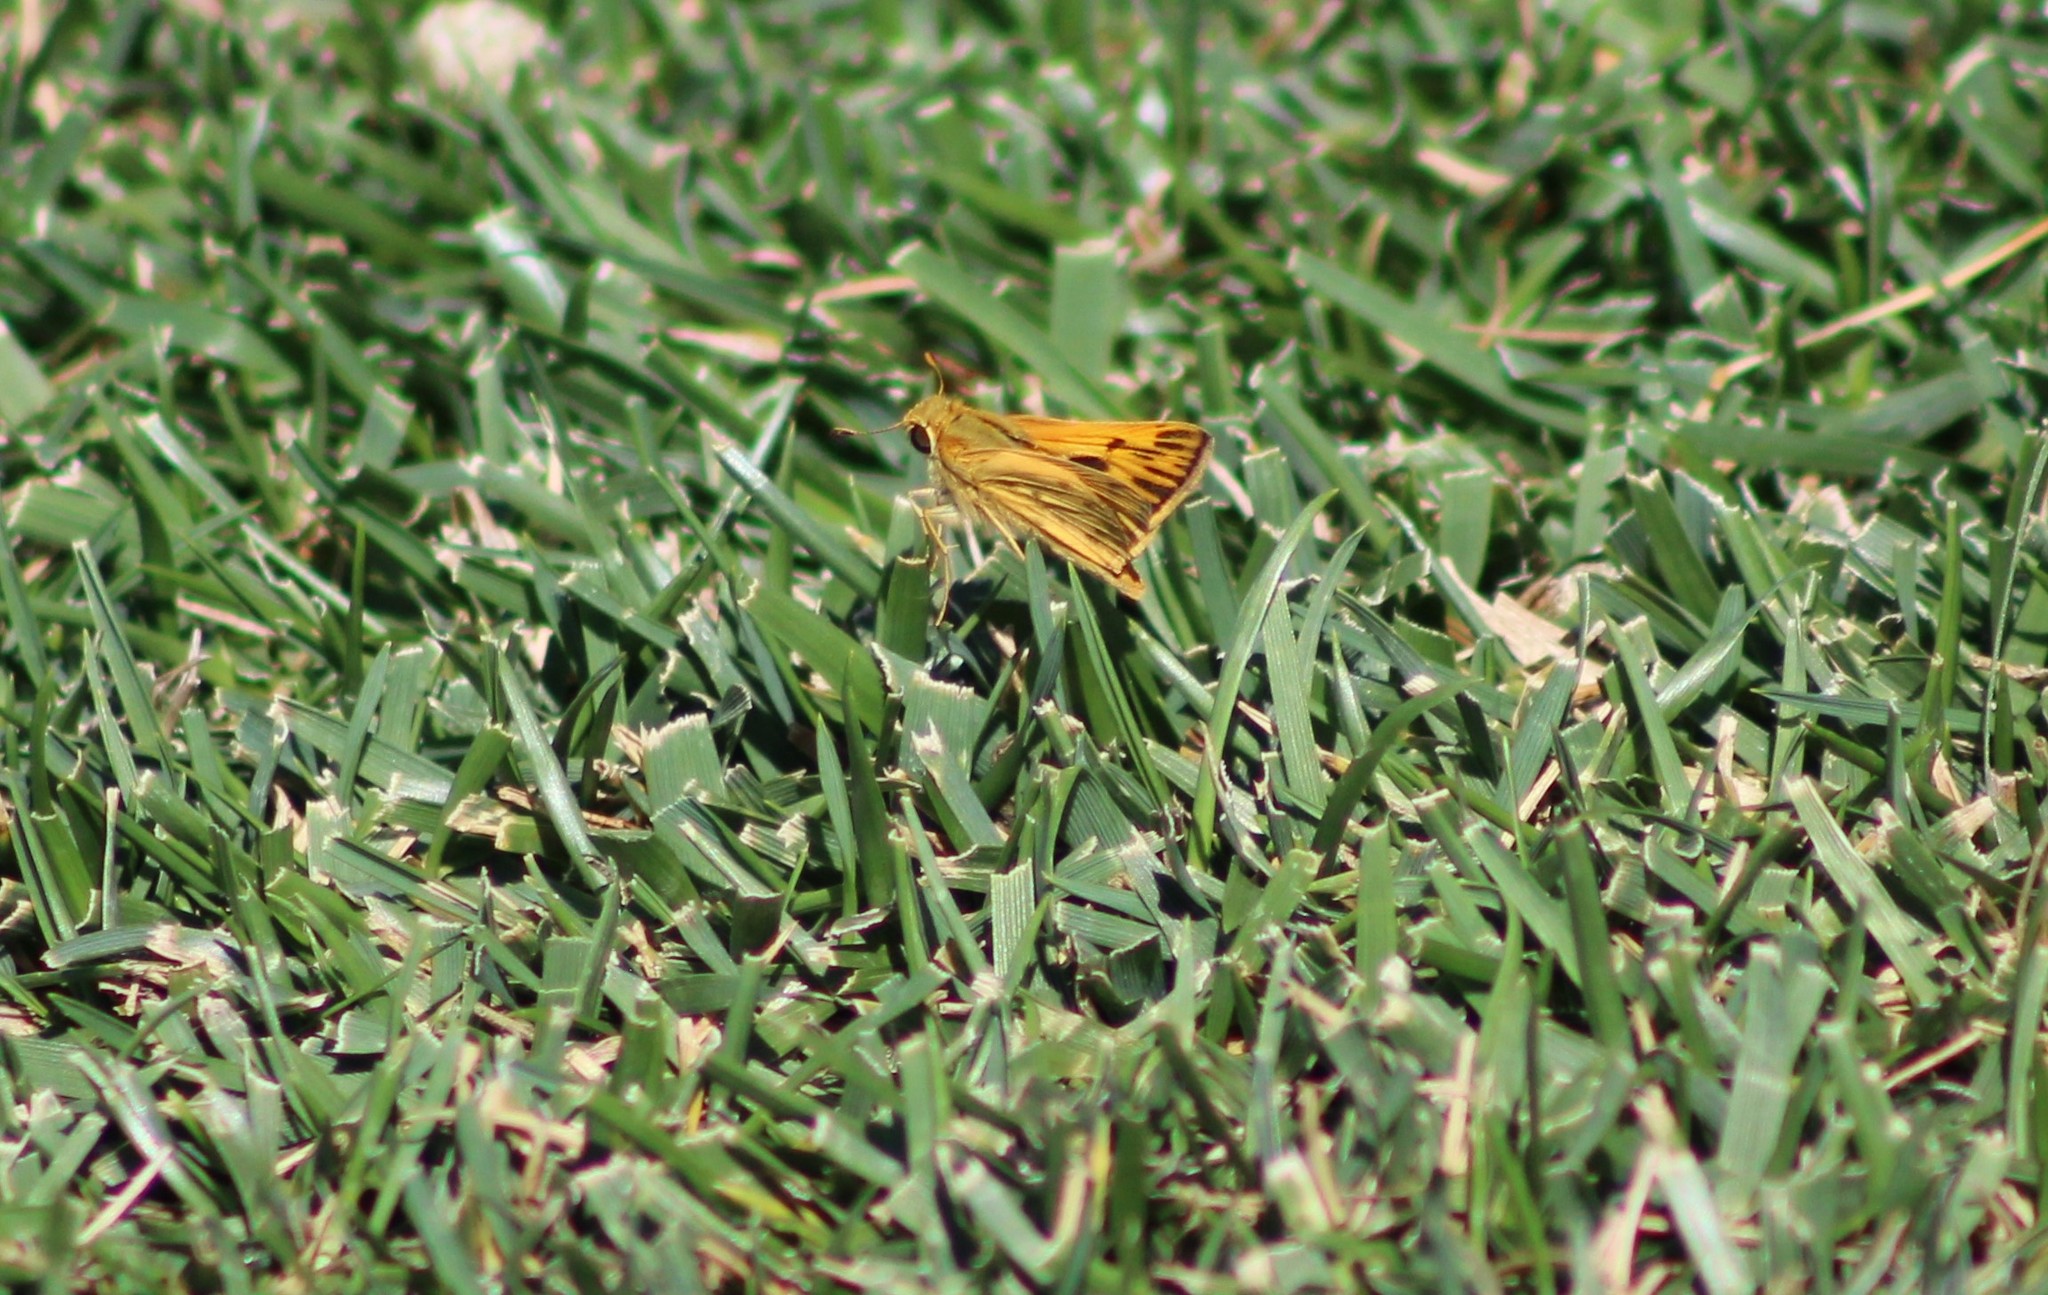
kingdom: Animalia
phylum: Arthropoda
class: Insecta
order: Lepidoptera
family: Hesperiidae
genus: Hylephila
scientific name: Hylephila phyleus
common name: Fiery skipper
